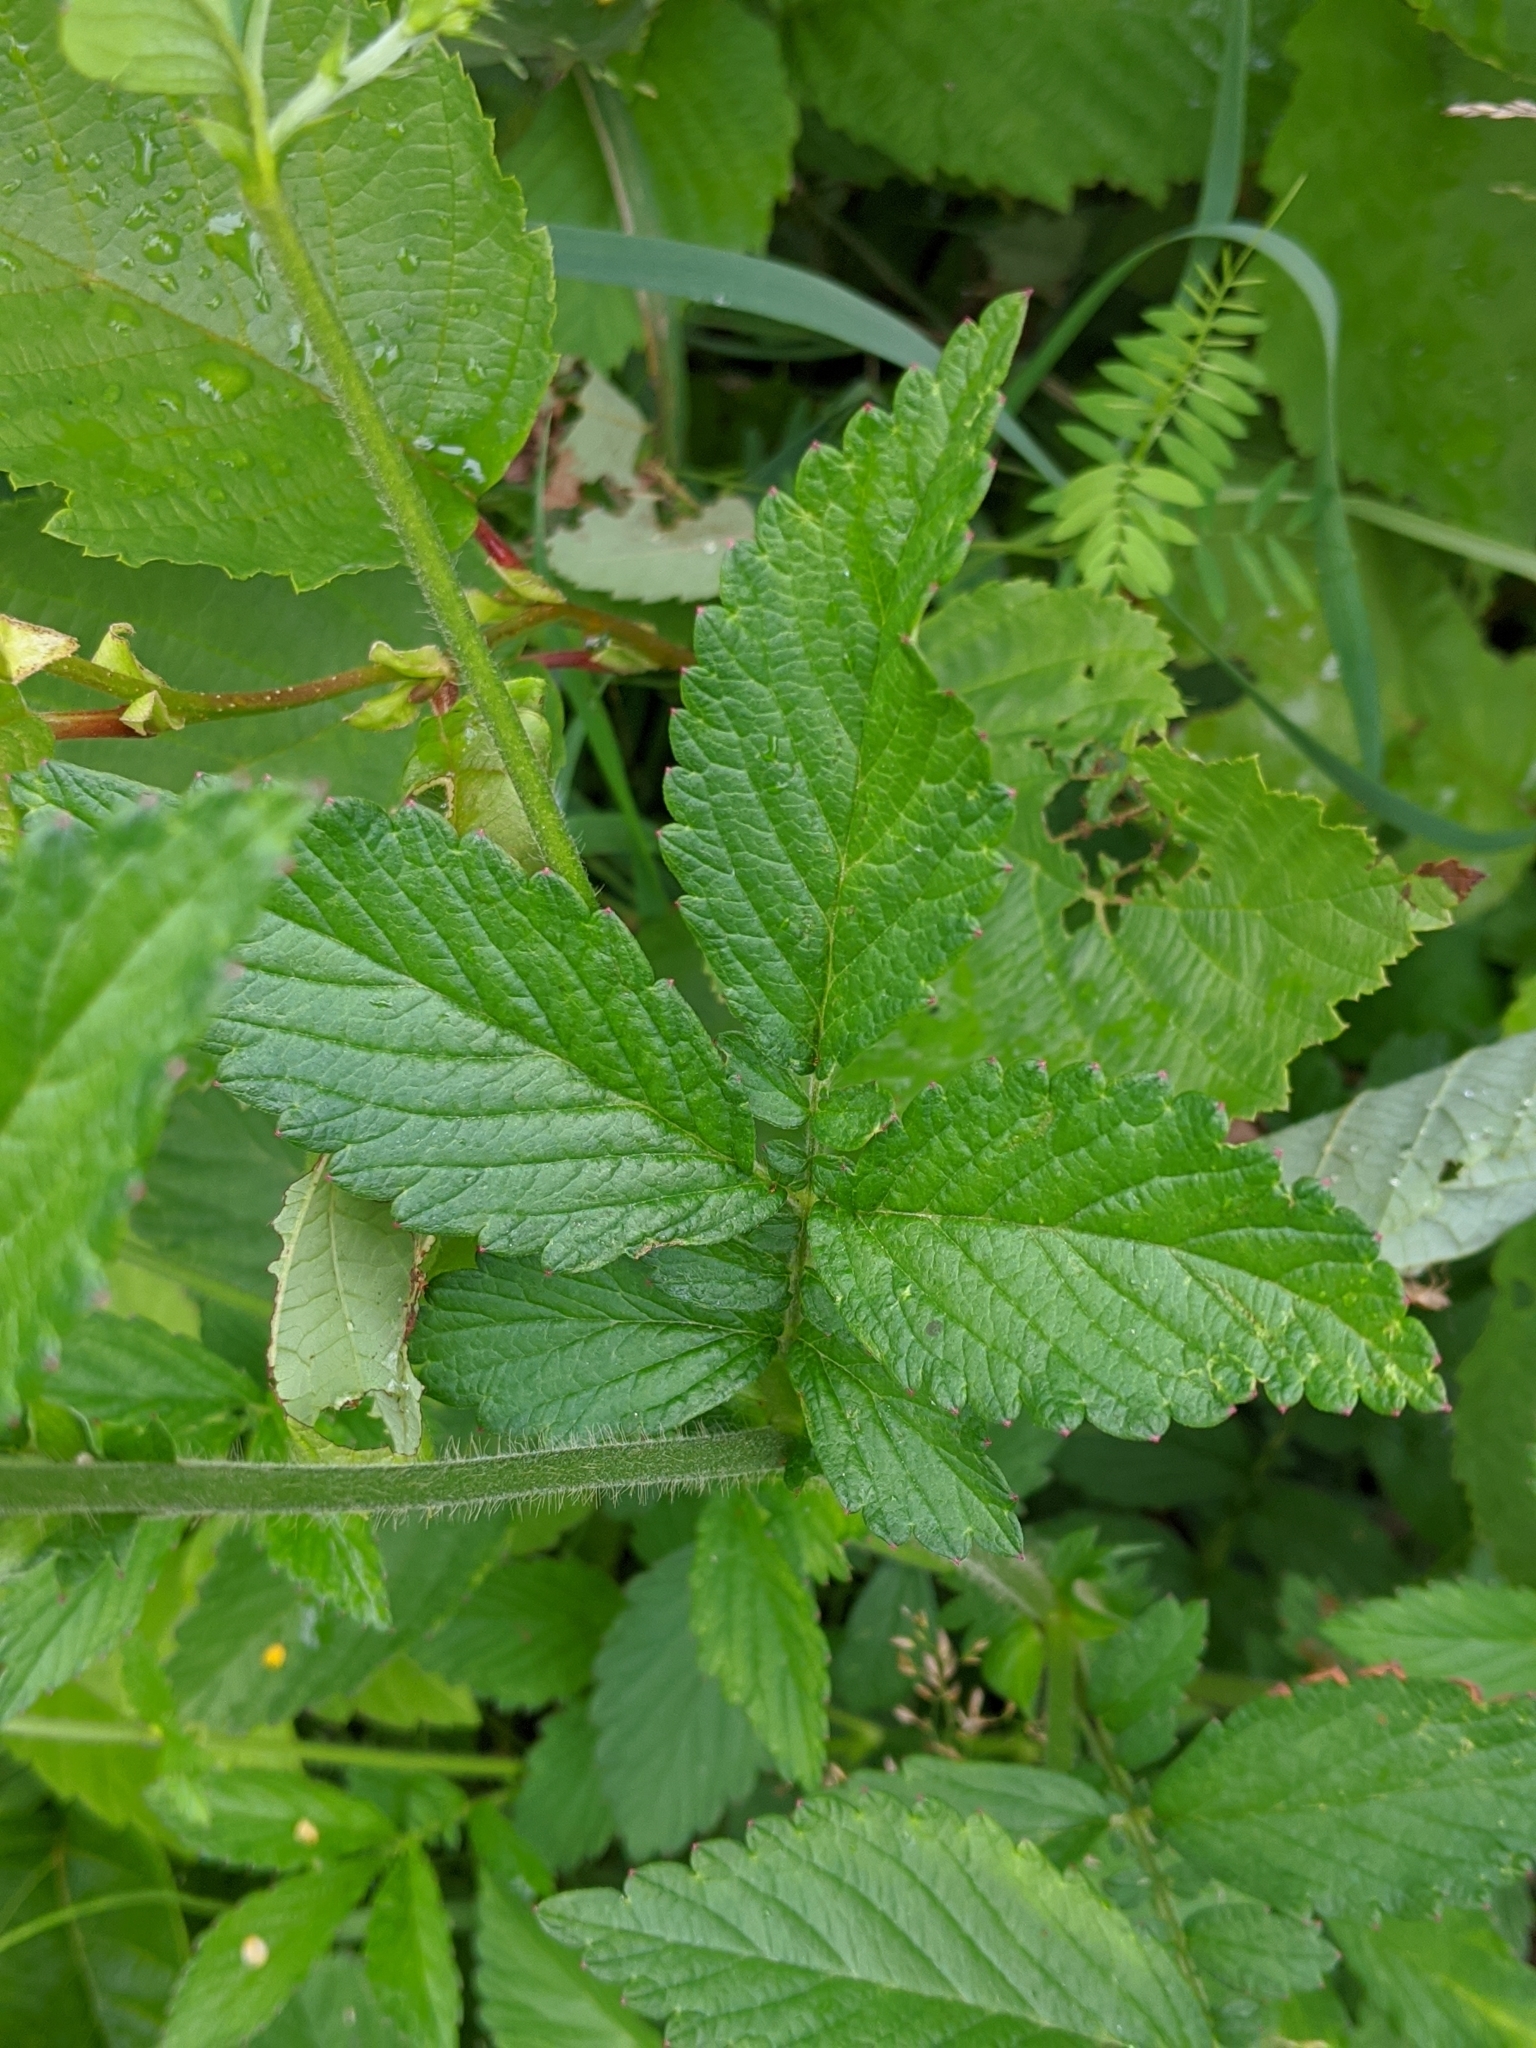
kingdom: Plantae
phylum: Tracheophyta
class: Magnoliopsida
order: Rosales
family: Rosaceae
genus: Agrimonia
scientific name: Agrimonia striata
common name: Britton's agrimony
